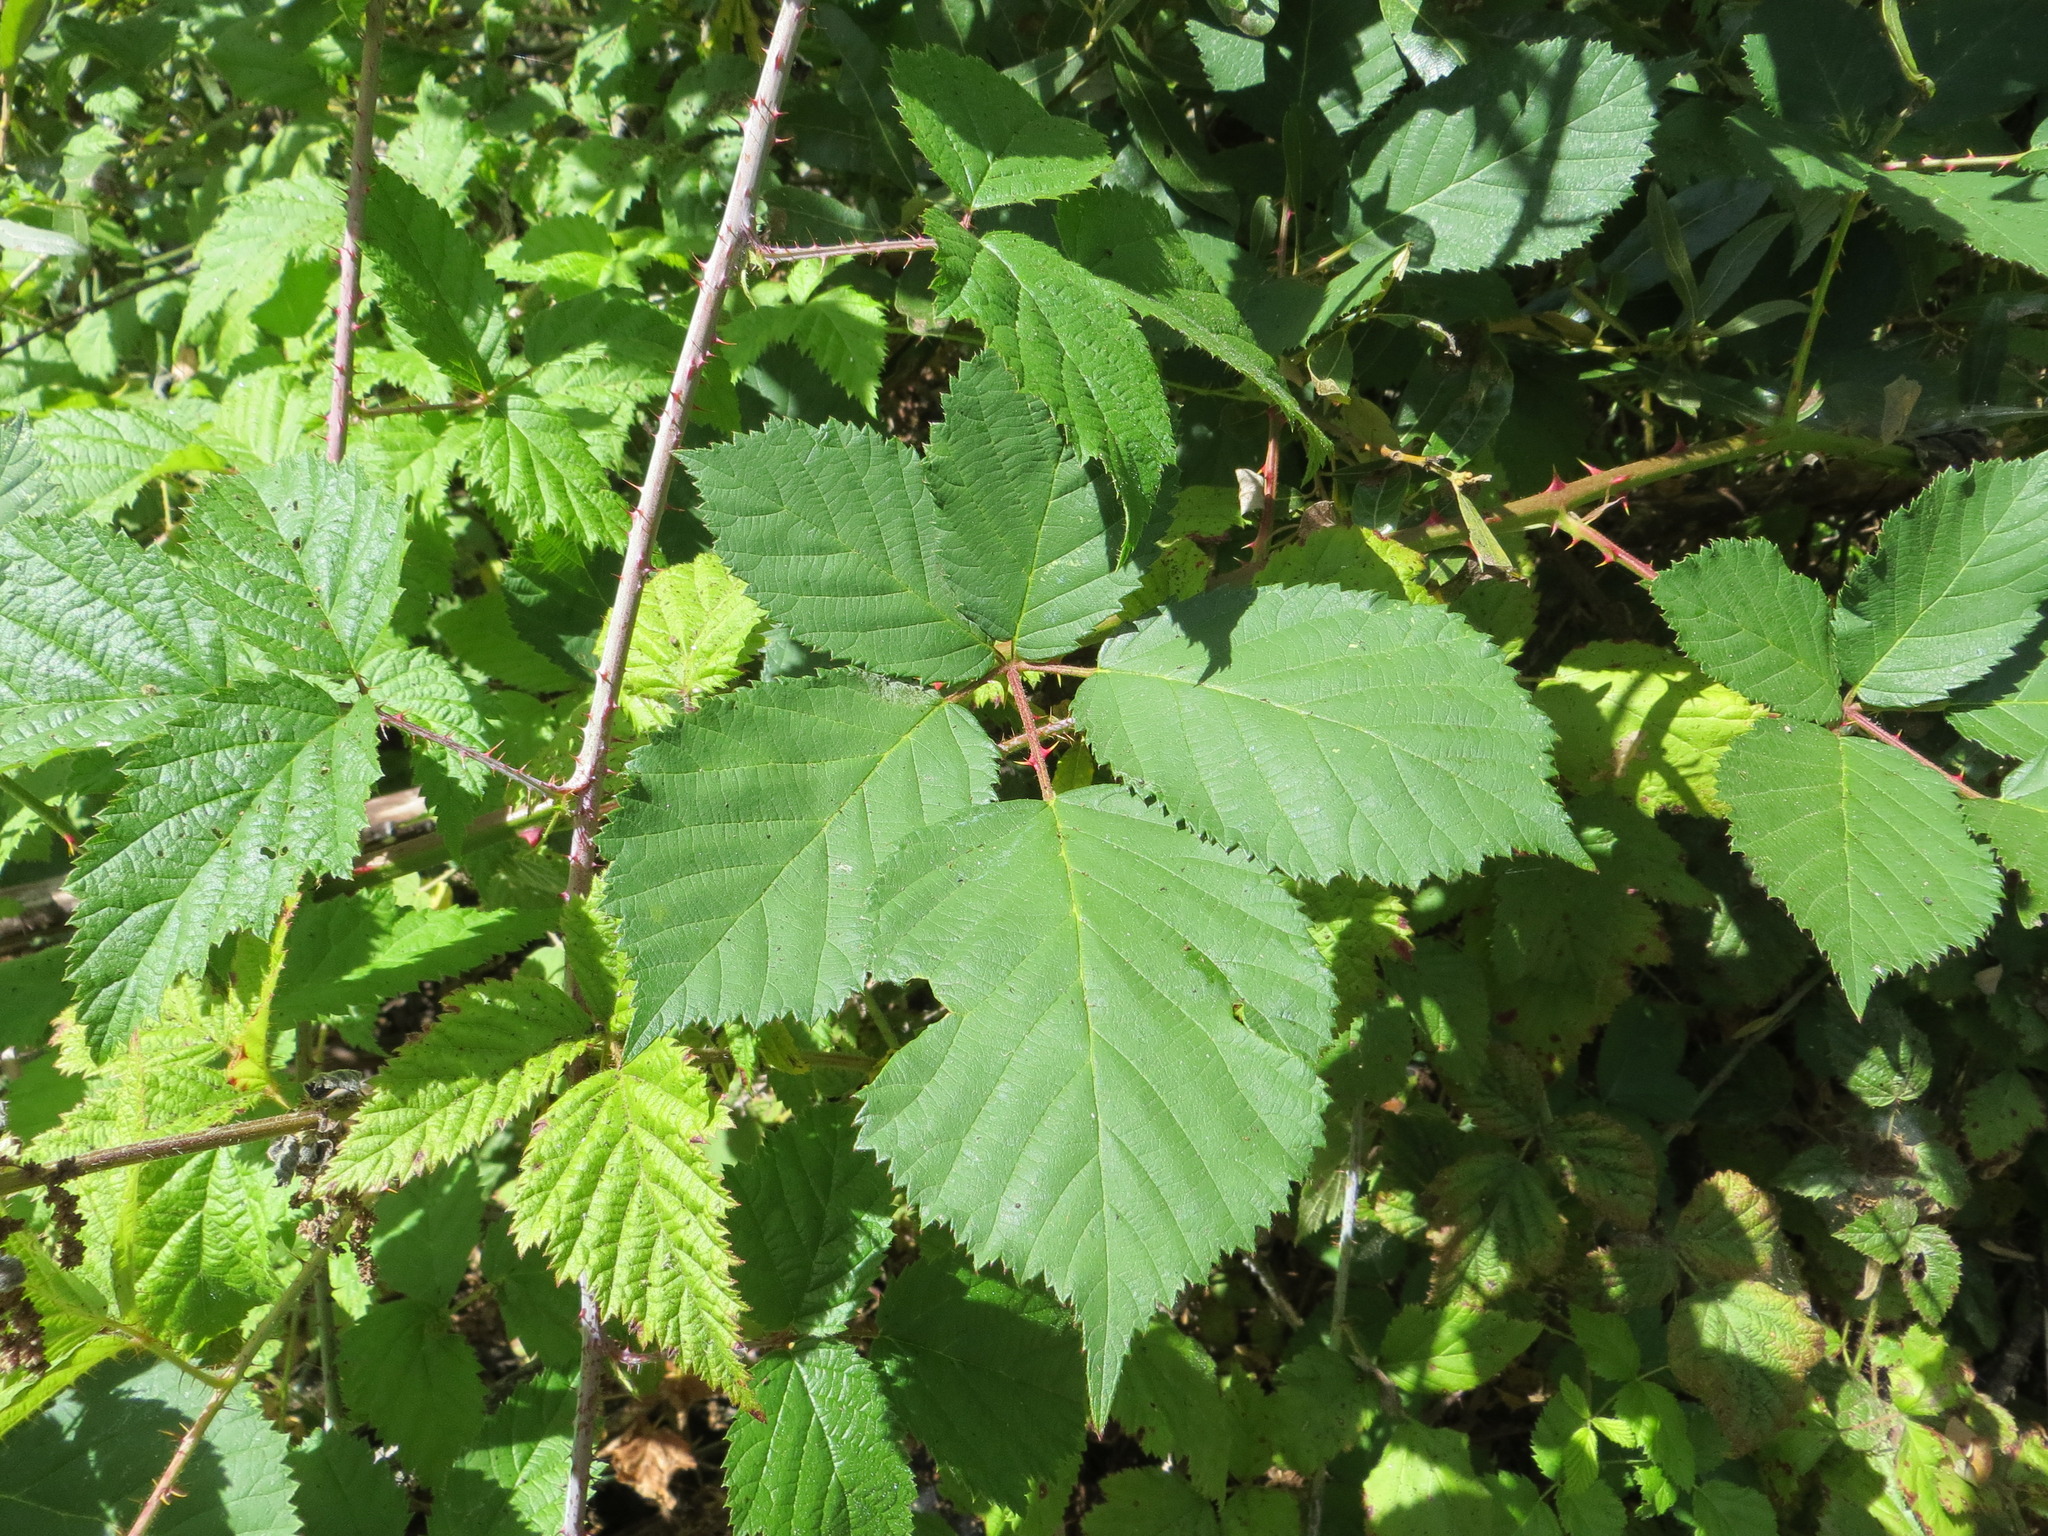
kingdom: Plantae
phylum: Tracheophyta
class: Magnoliopsida
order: Rosales
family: Rosaceae
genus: Rubus
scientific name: Rubus armeniacus
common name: Himalayan blackberry
